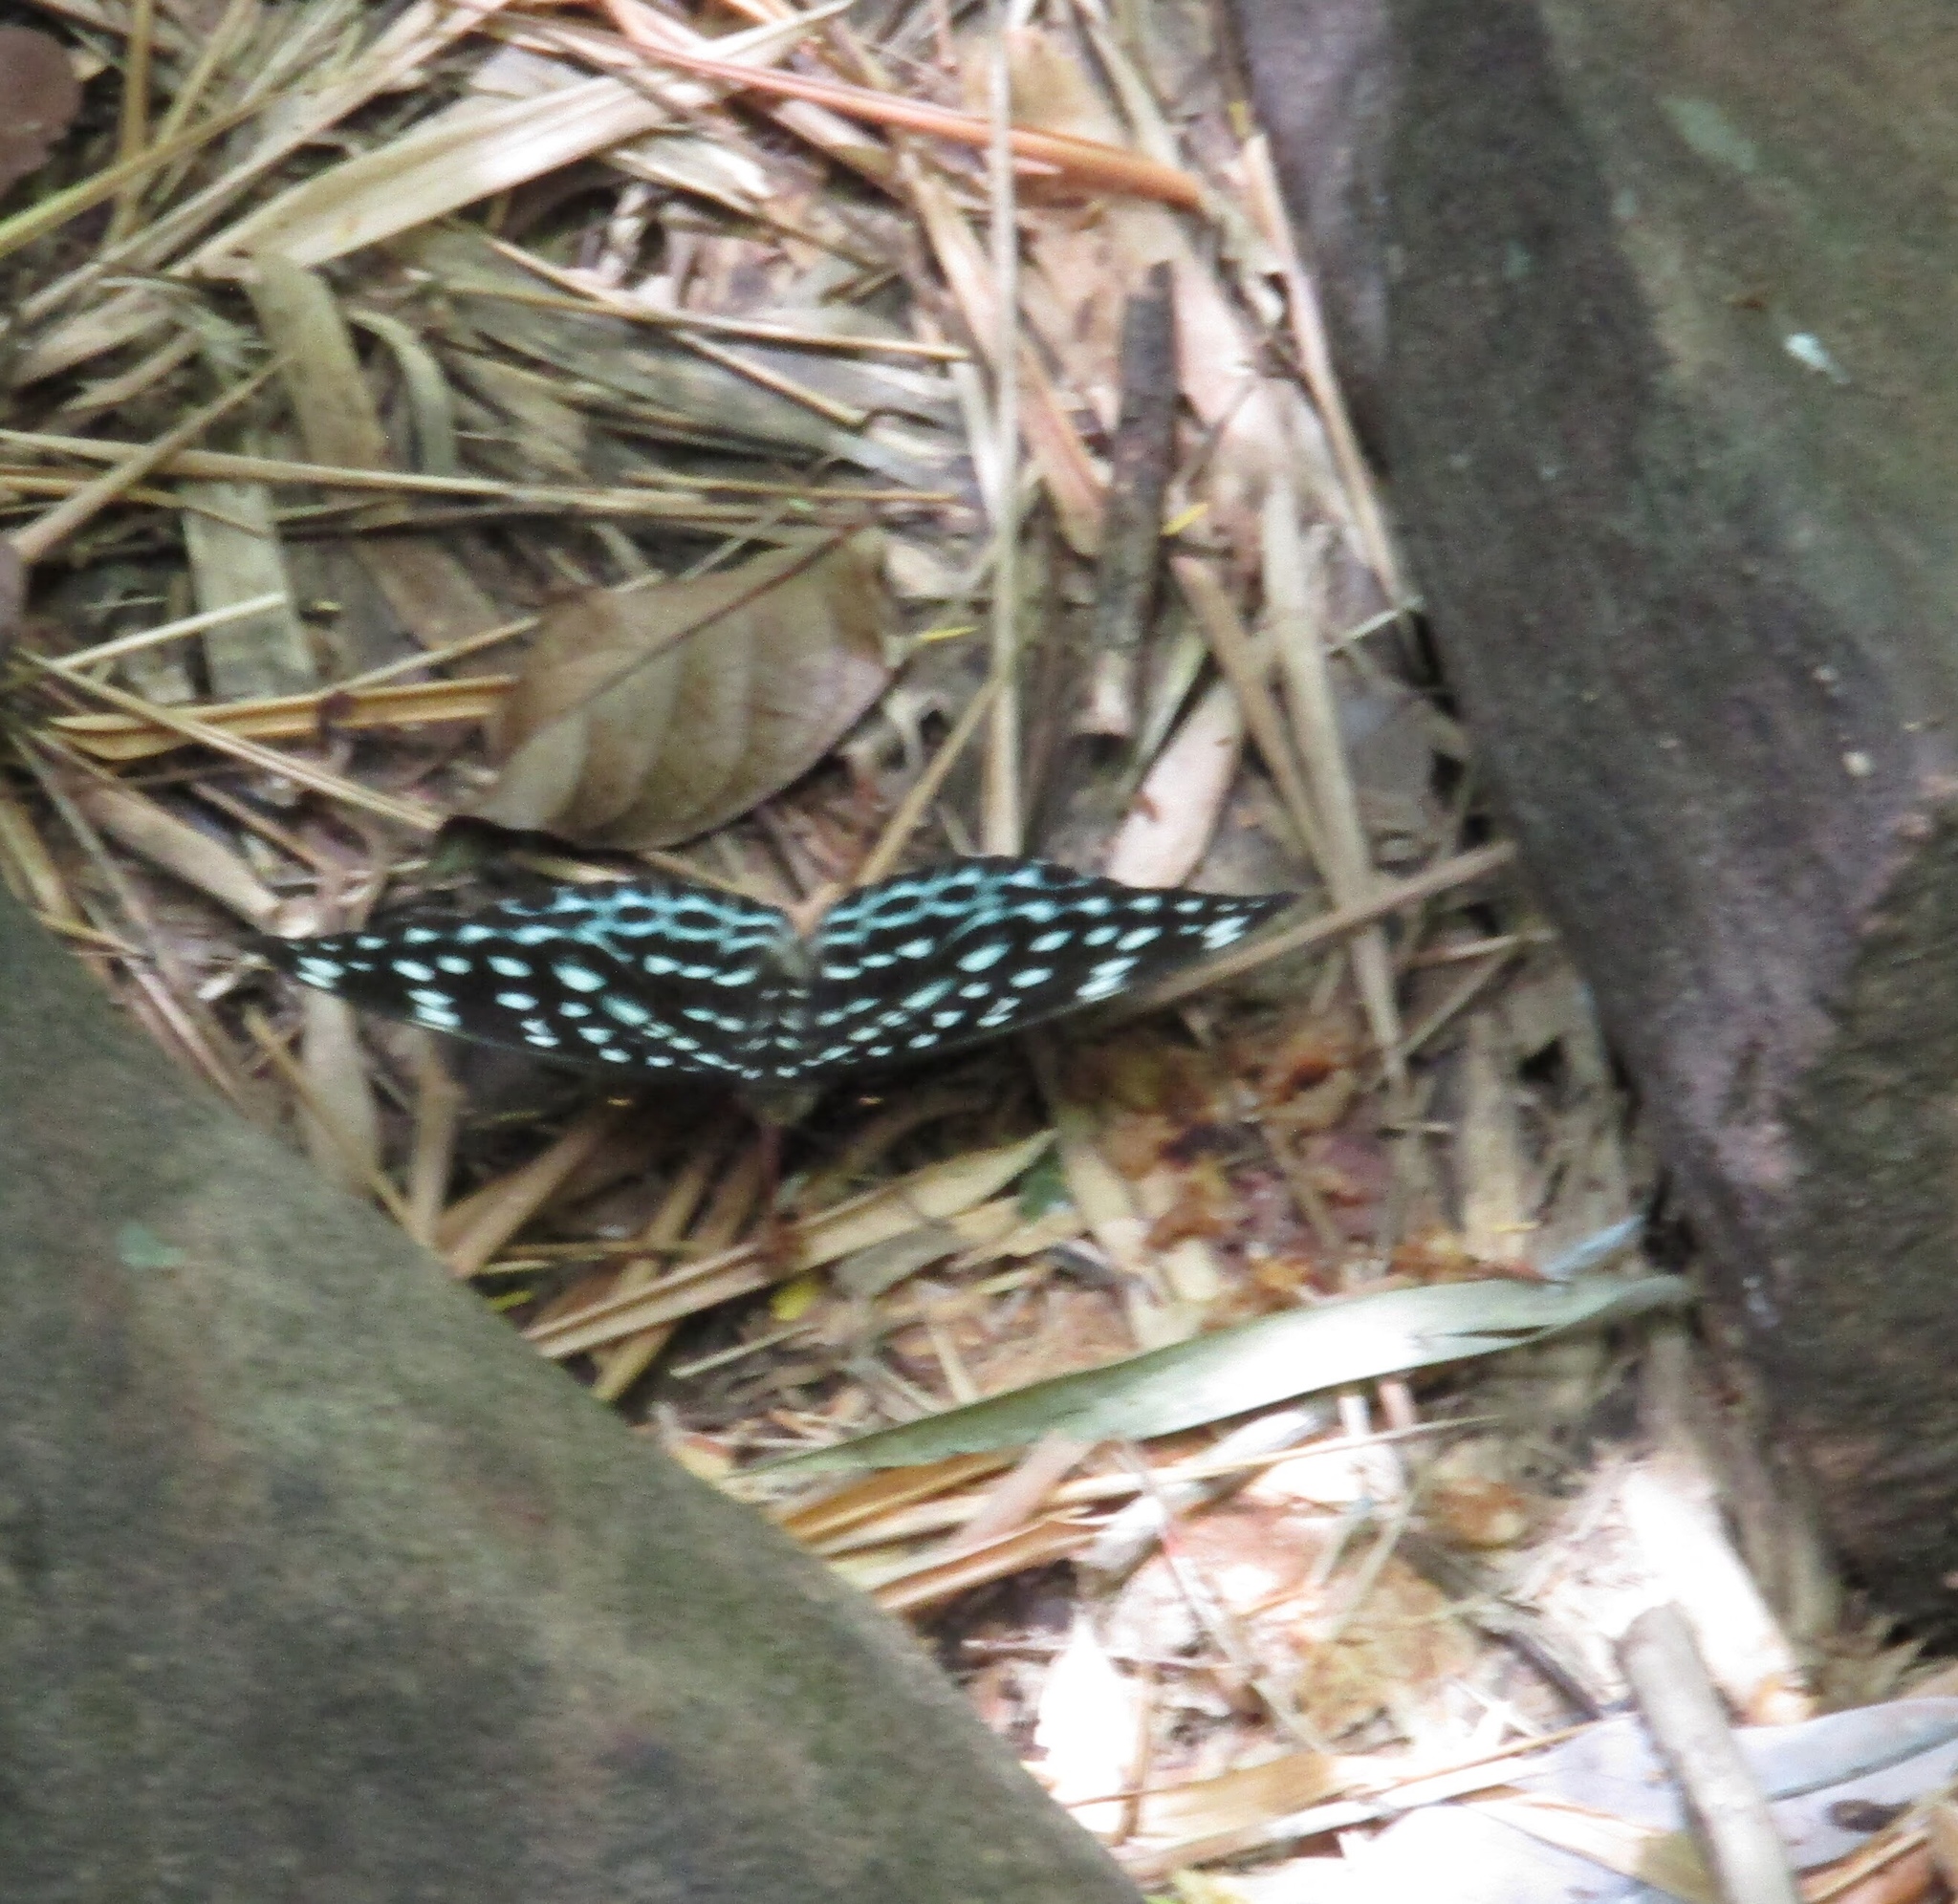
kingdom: Animalia
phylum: Arthropoda
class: Insecta
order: Lepidoptera
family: Nymphalidae
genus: Lexias
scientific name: Lexias
